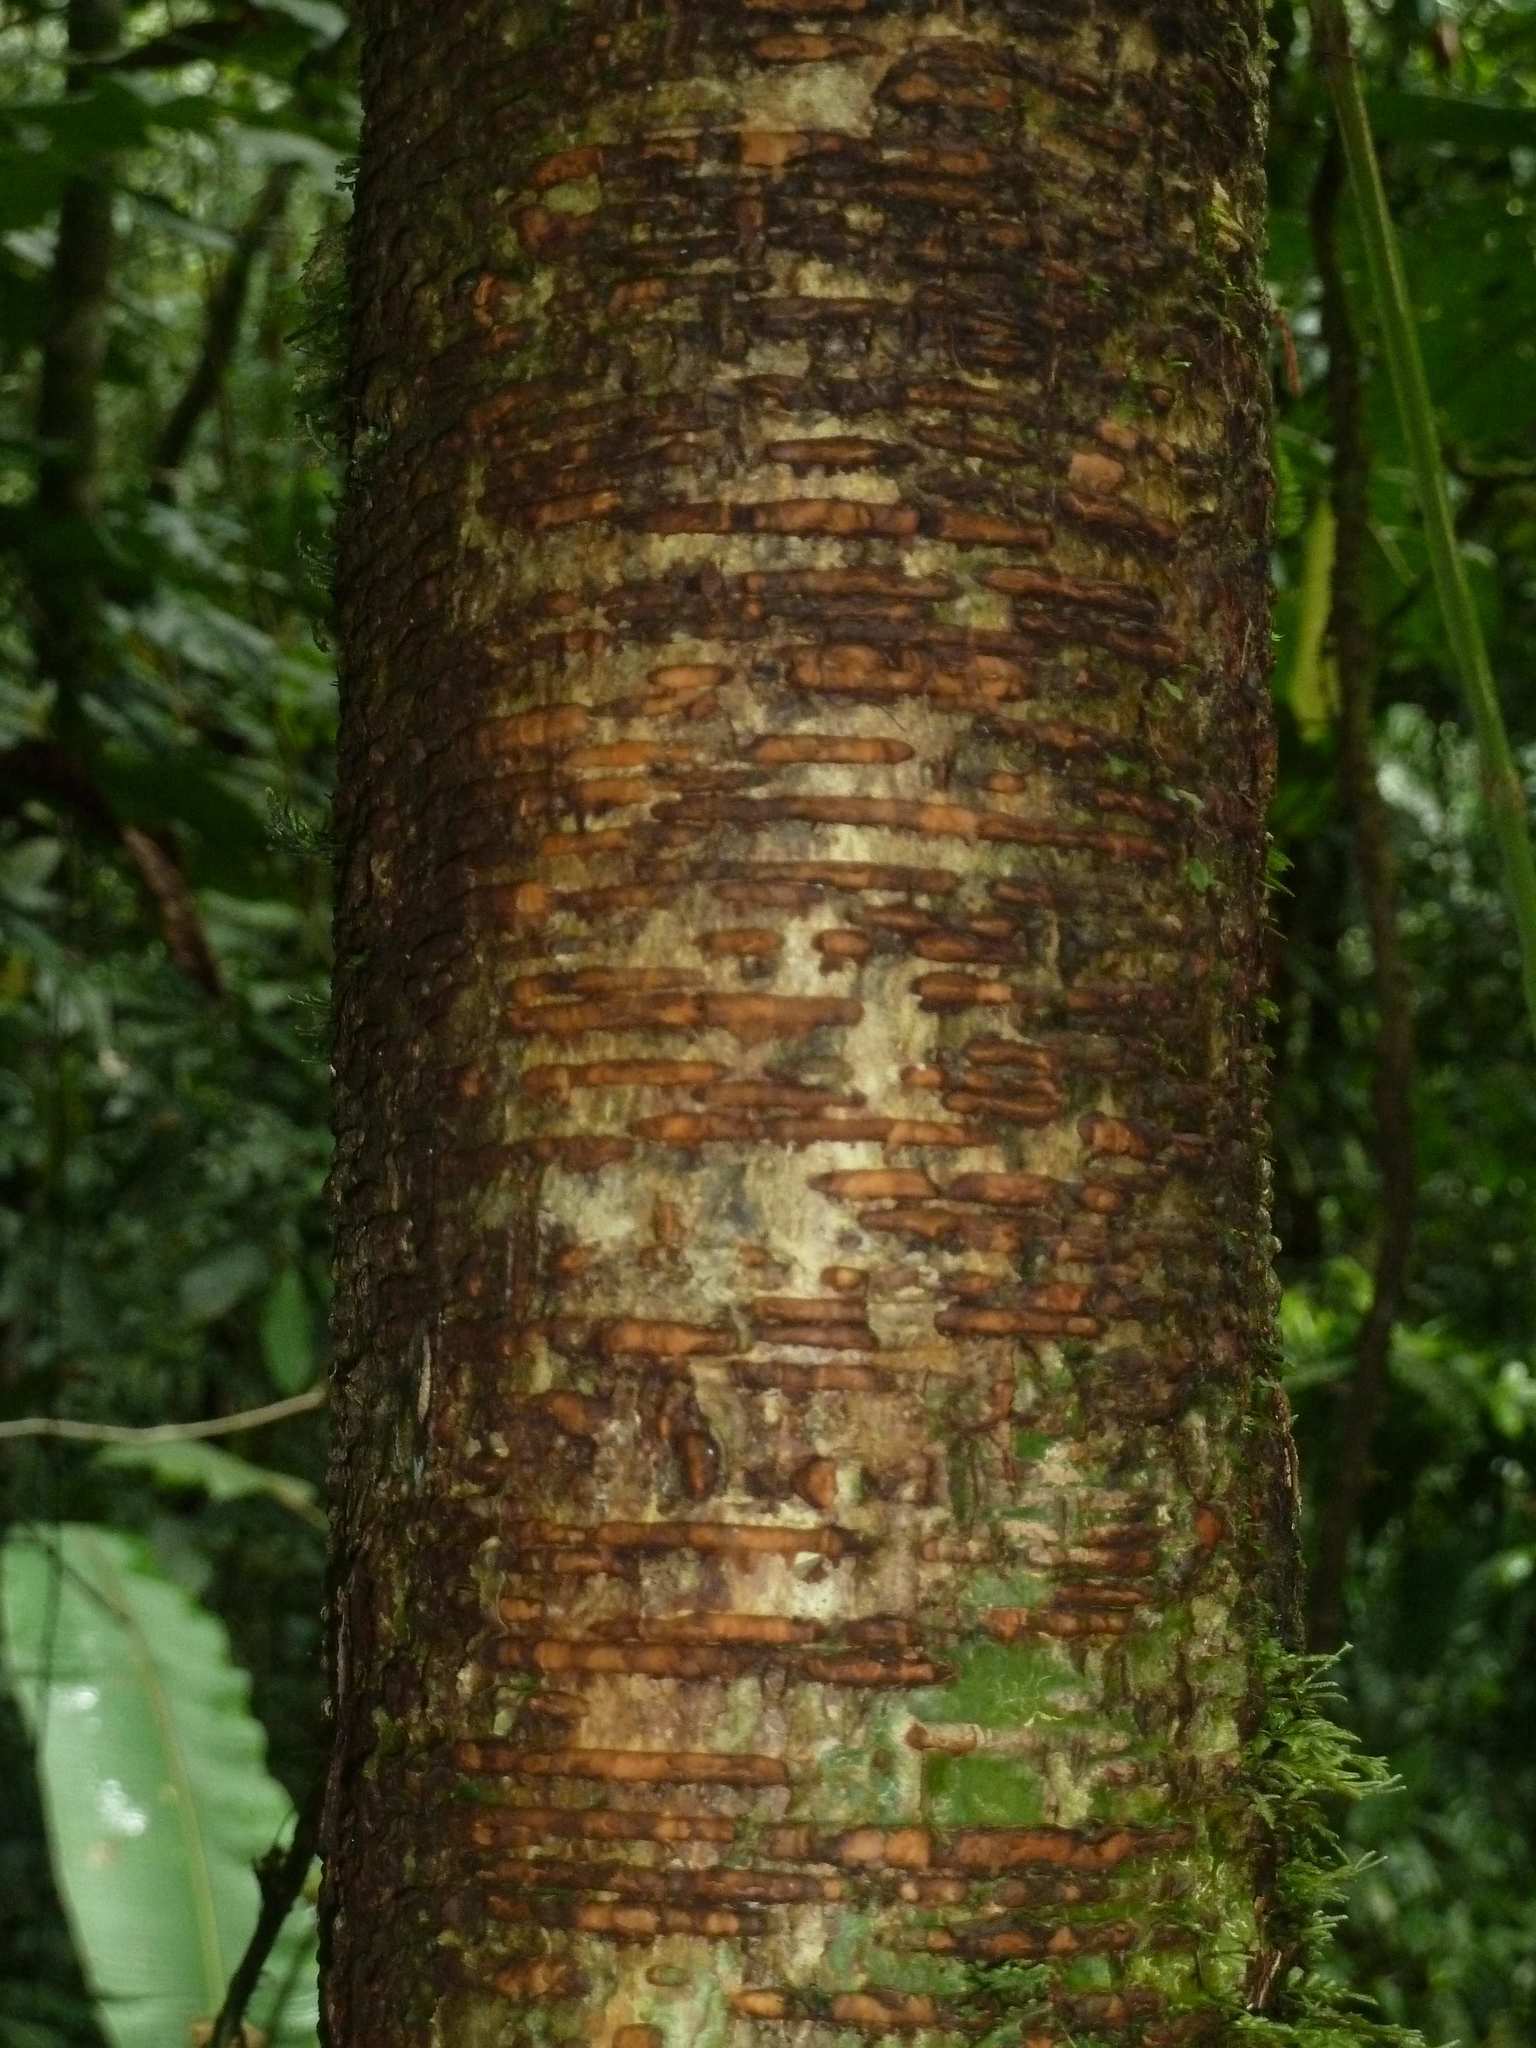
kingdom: Plantae
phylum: Tracheophyta
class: Magnoliopsida
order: Rosales
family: Moraceae
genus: Brosimum
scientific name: Brosimum costaricanum
